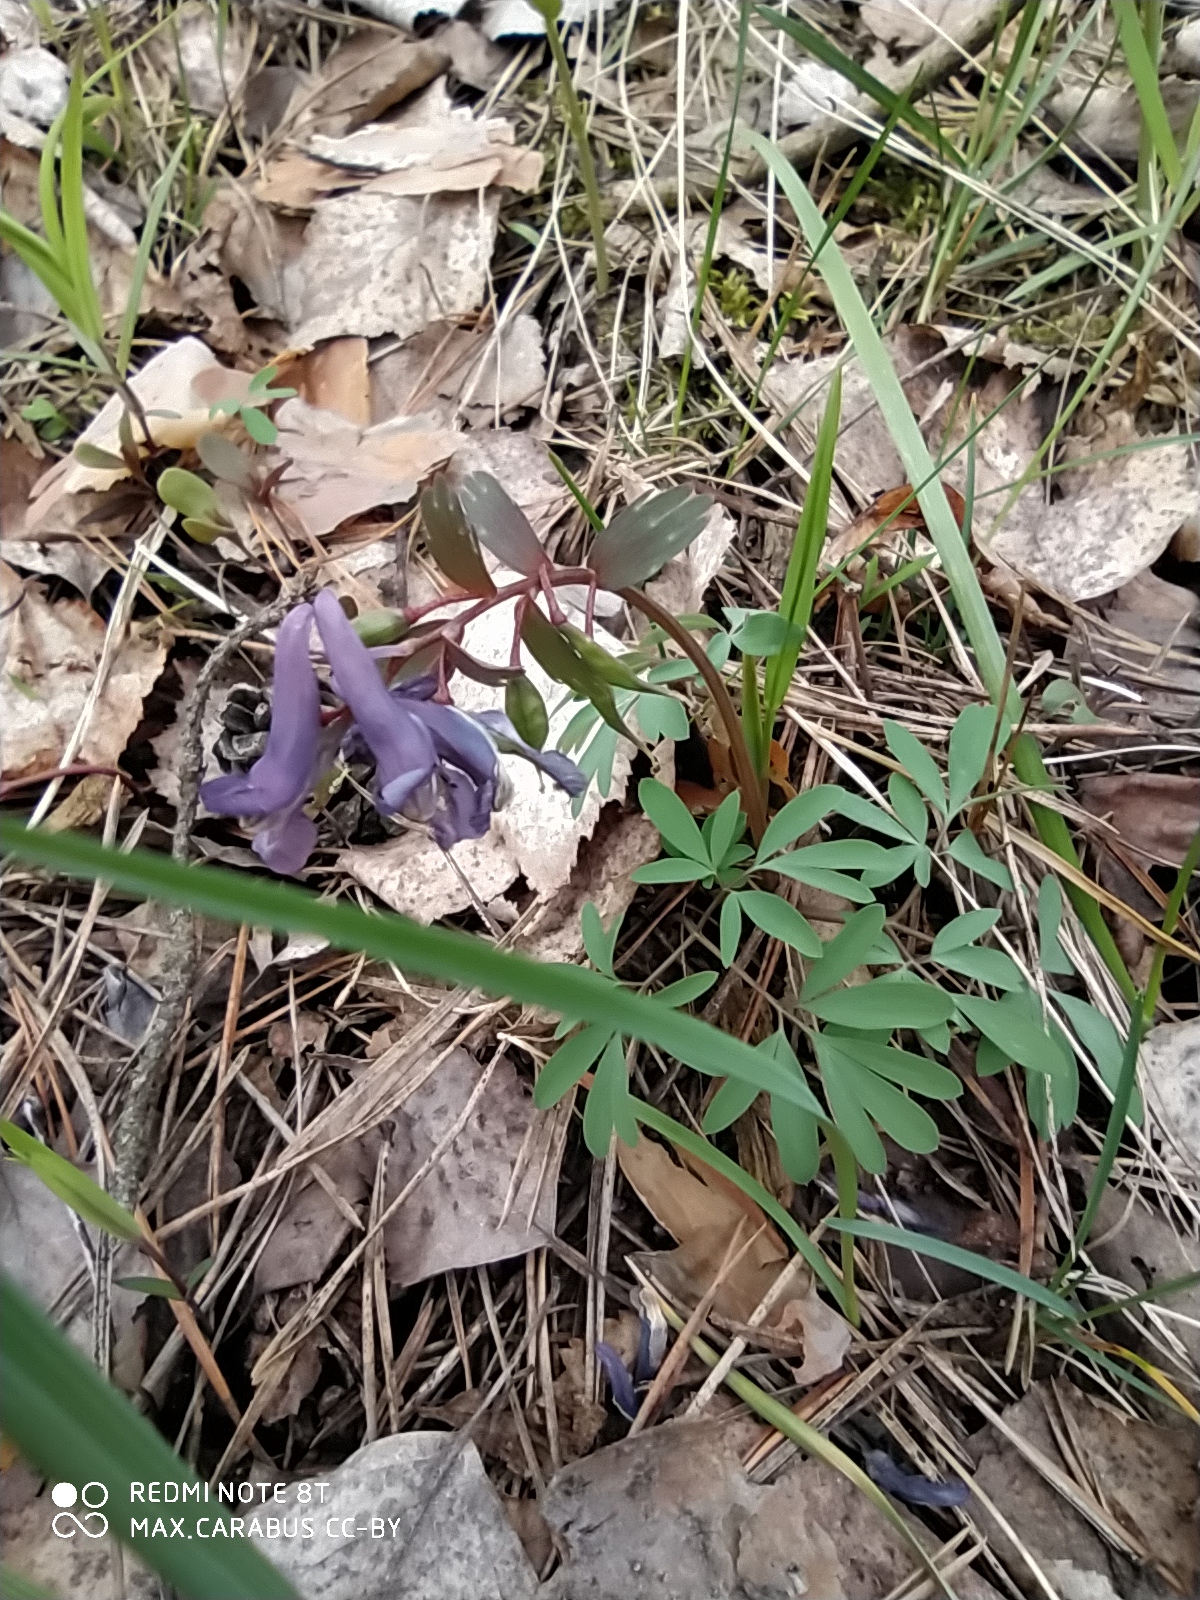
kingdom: Plantae
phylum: Tracheophyta
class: Magnoliopsida
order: Ranunculales
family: Papaveraceae
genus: Corydalis
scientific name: Corydalis solida
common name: Bird-in-a-bush
